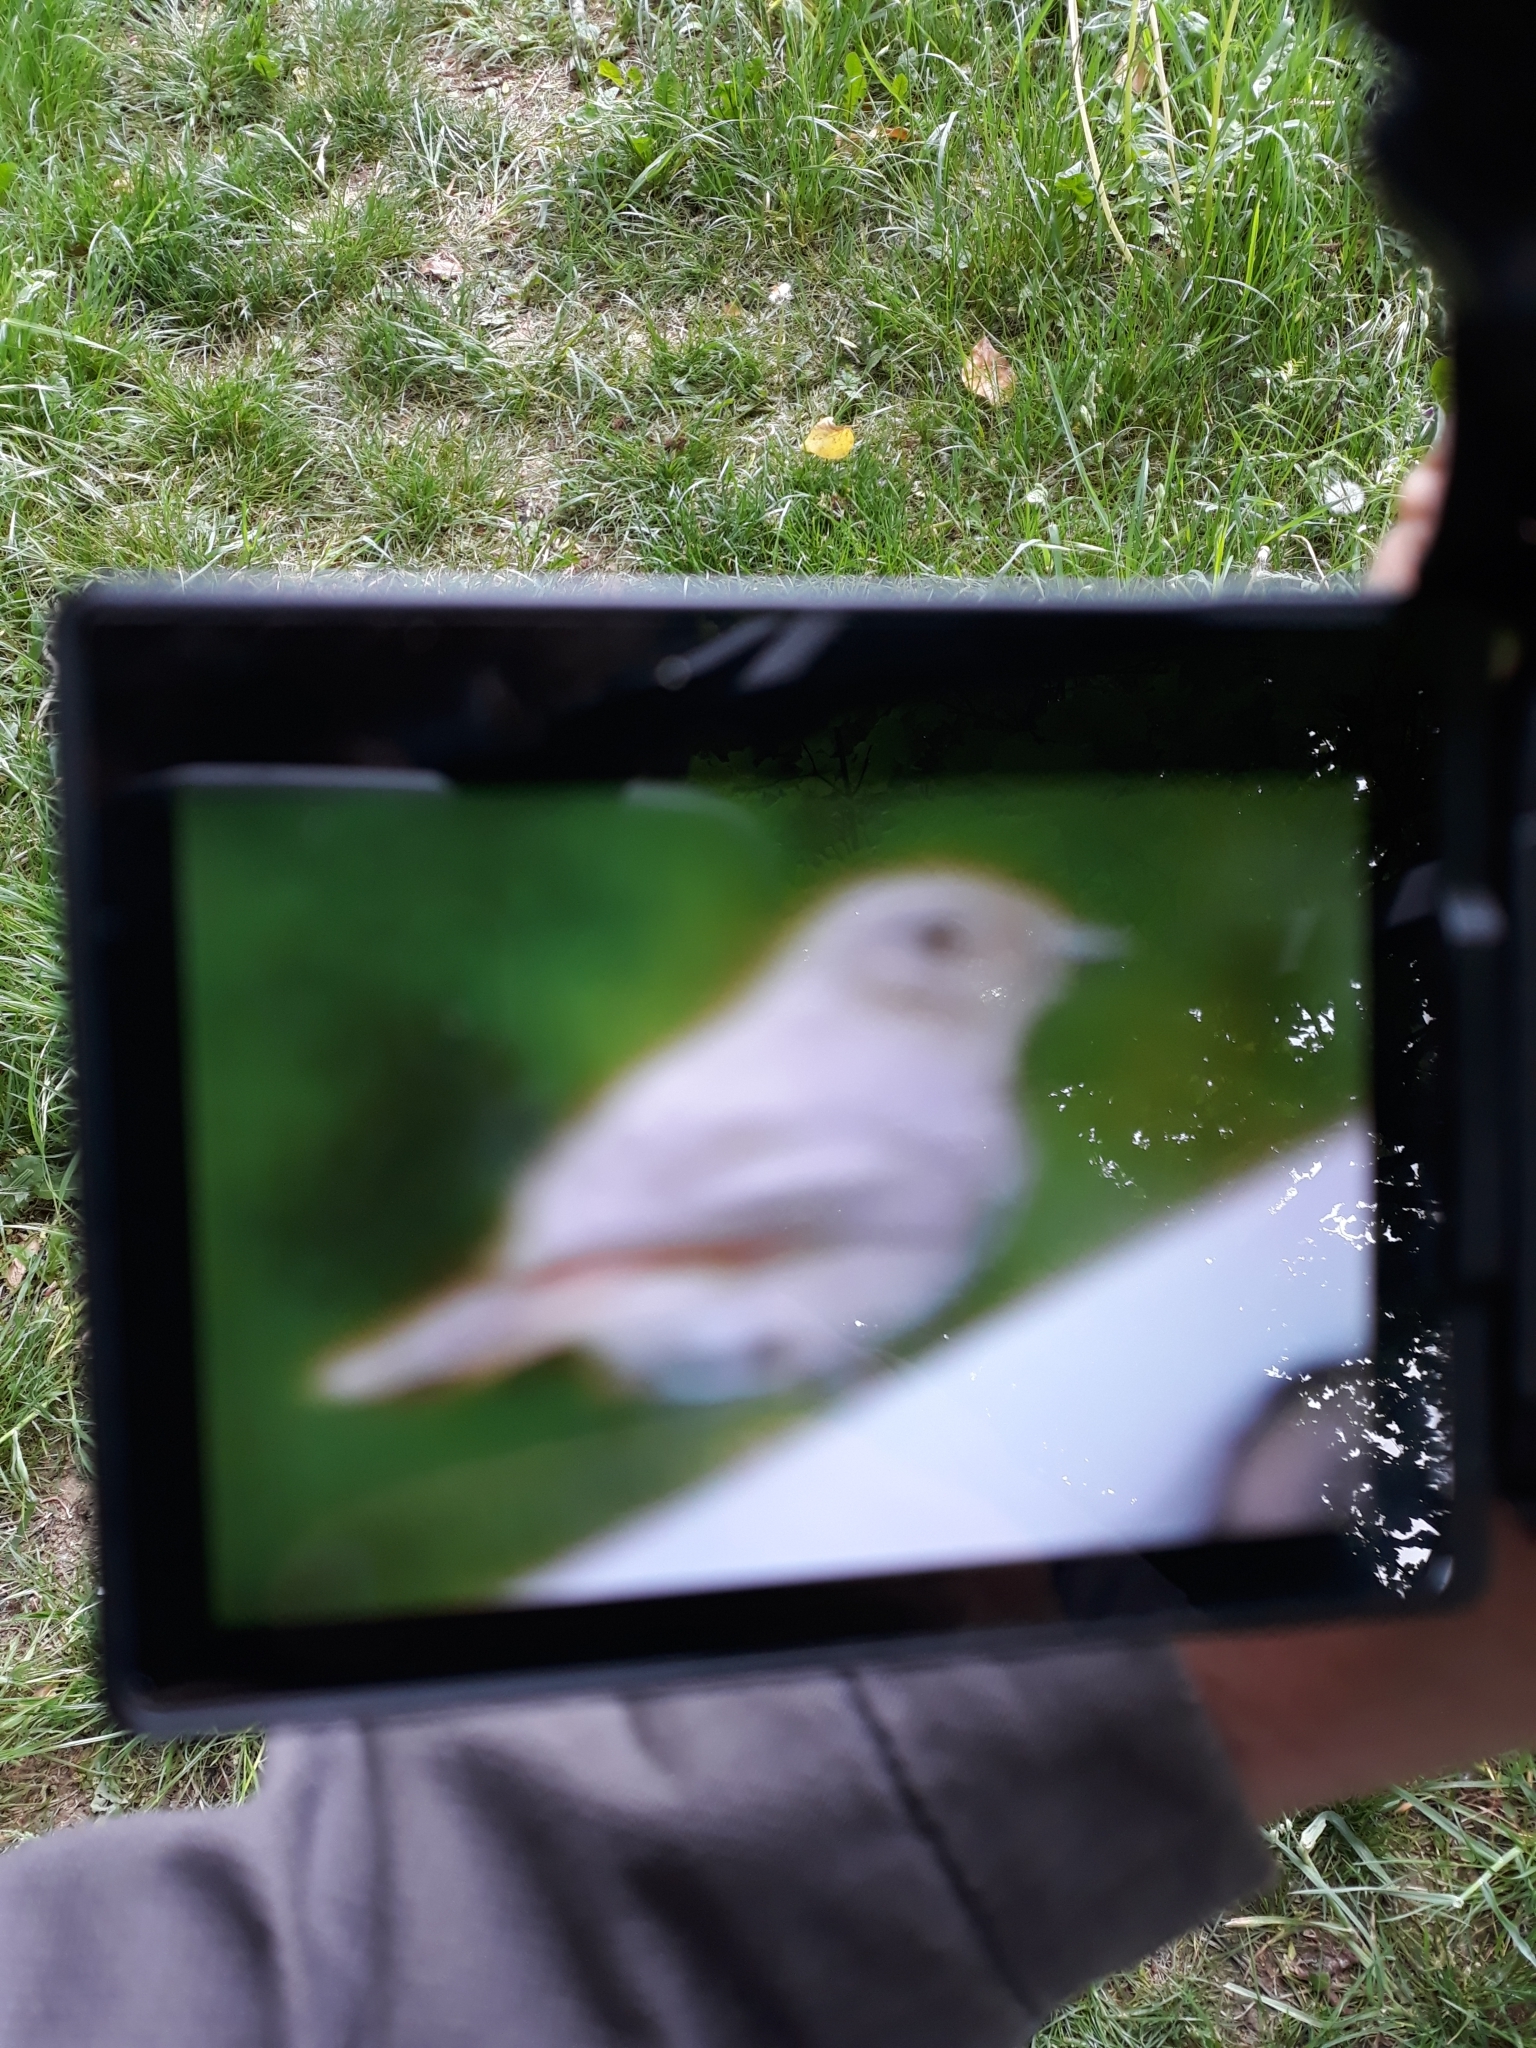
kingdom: Animalia
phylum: Chordata
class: Aves
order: Passeriformes
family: Muscicapidae
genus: Phoenicurus
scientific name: Phoenicurus ochruros
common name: Black redstart
